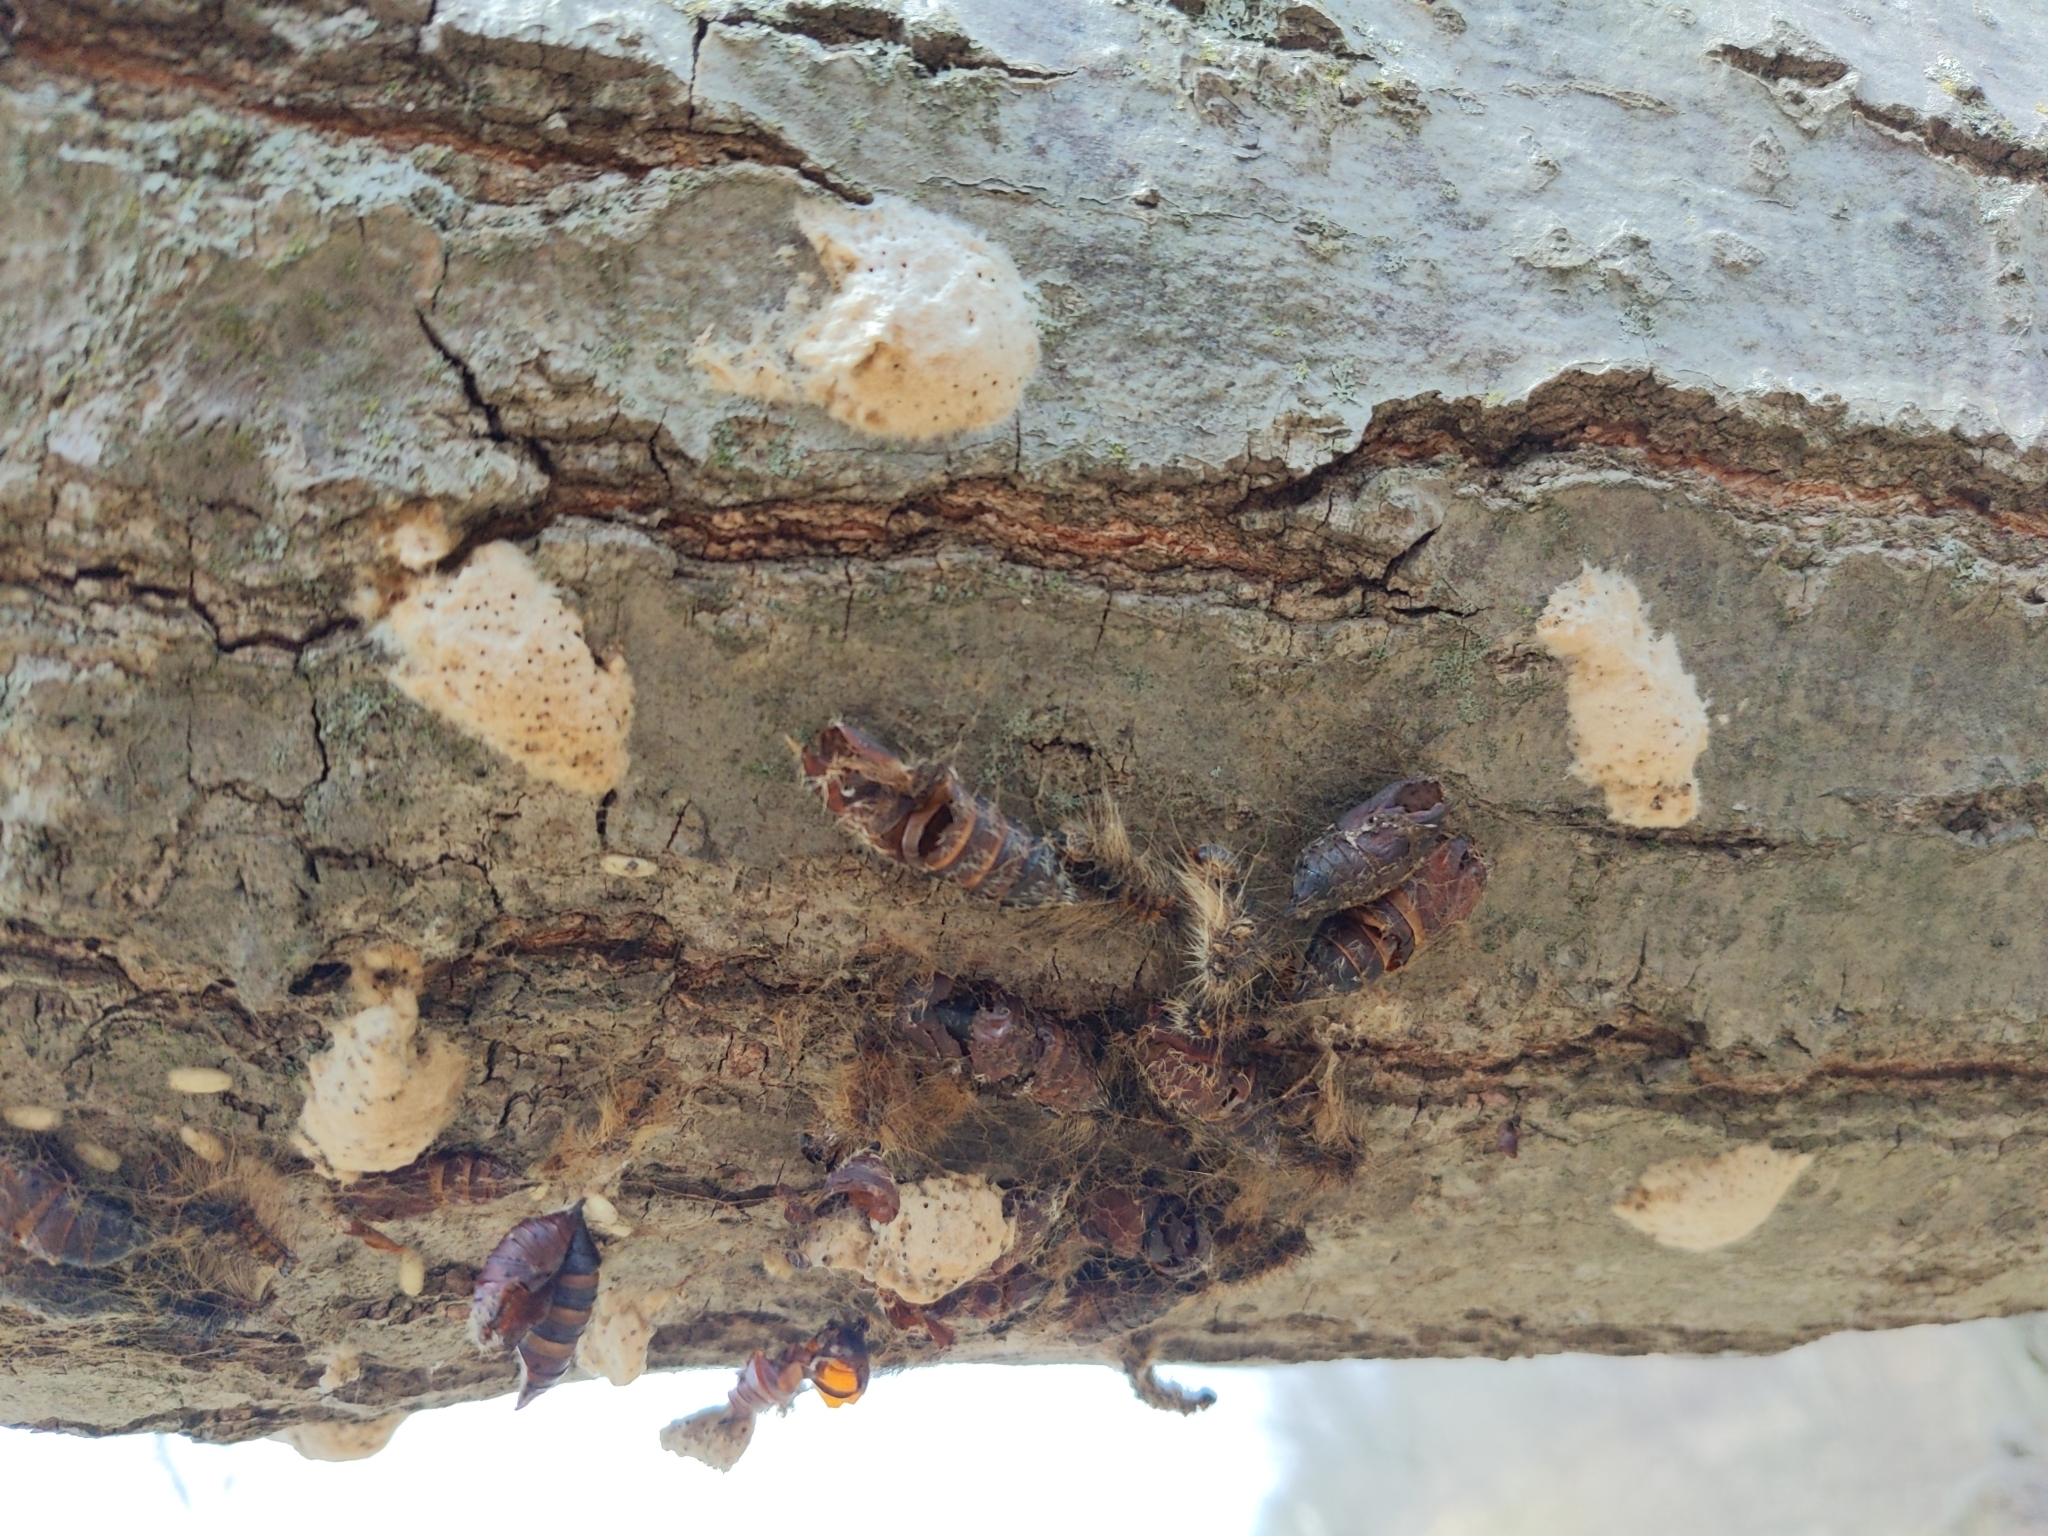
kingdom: Animalia
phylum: Arthropoda
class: Insecta
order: Lepidoptera
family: Erebidae
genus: Lymantria
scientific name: Lymantria dispar
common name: Gypsy moth
